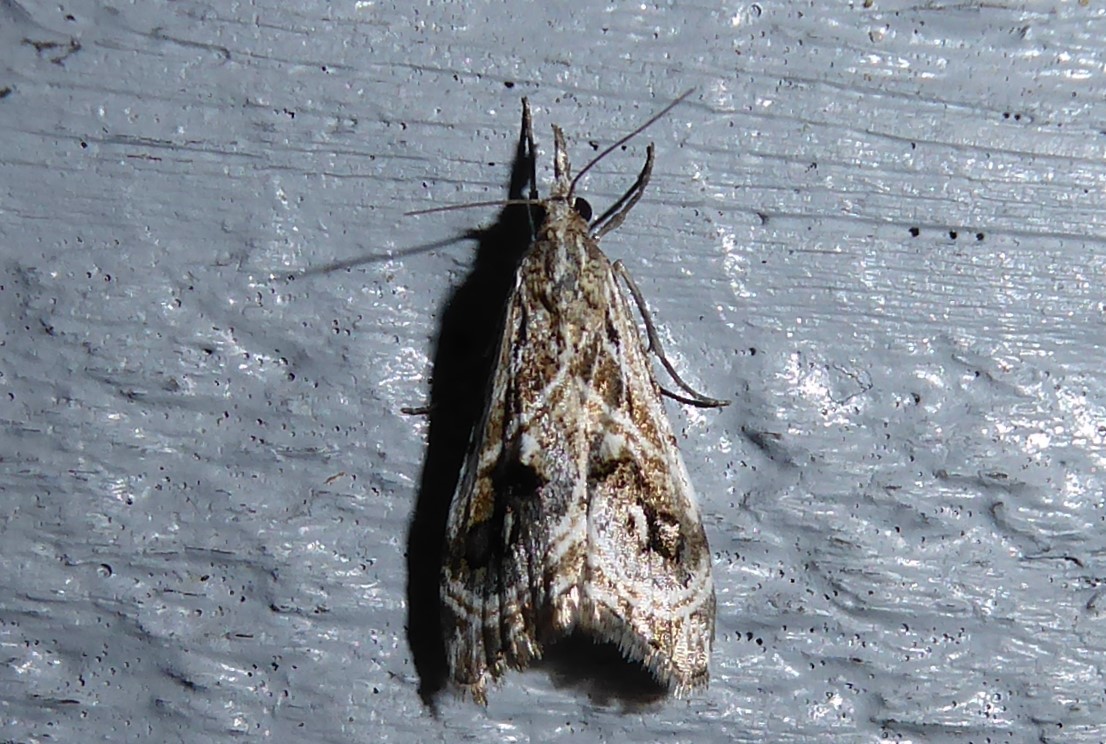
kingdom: Animalia
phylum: Arthropoda
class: Insecta
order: Lepidoptera
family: Crambidae
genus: Gadira
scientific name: Gadira acerella
